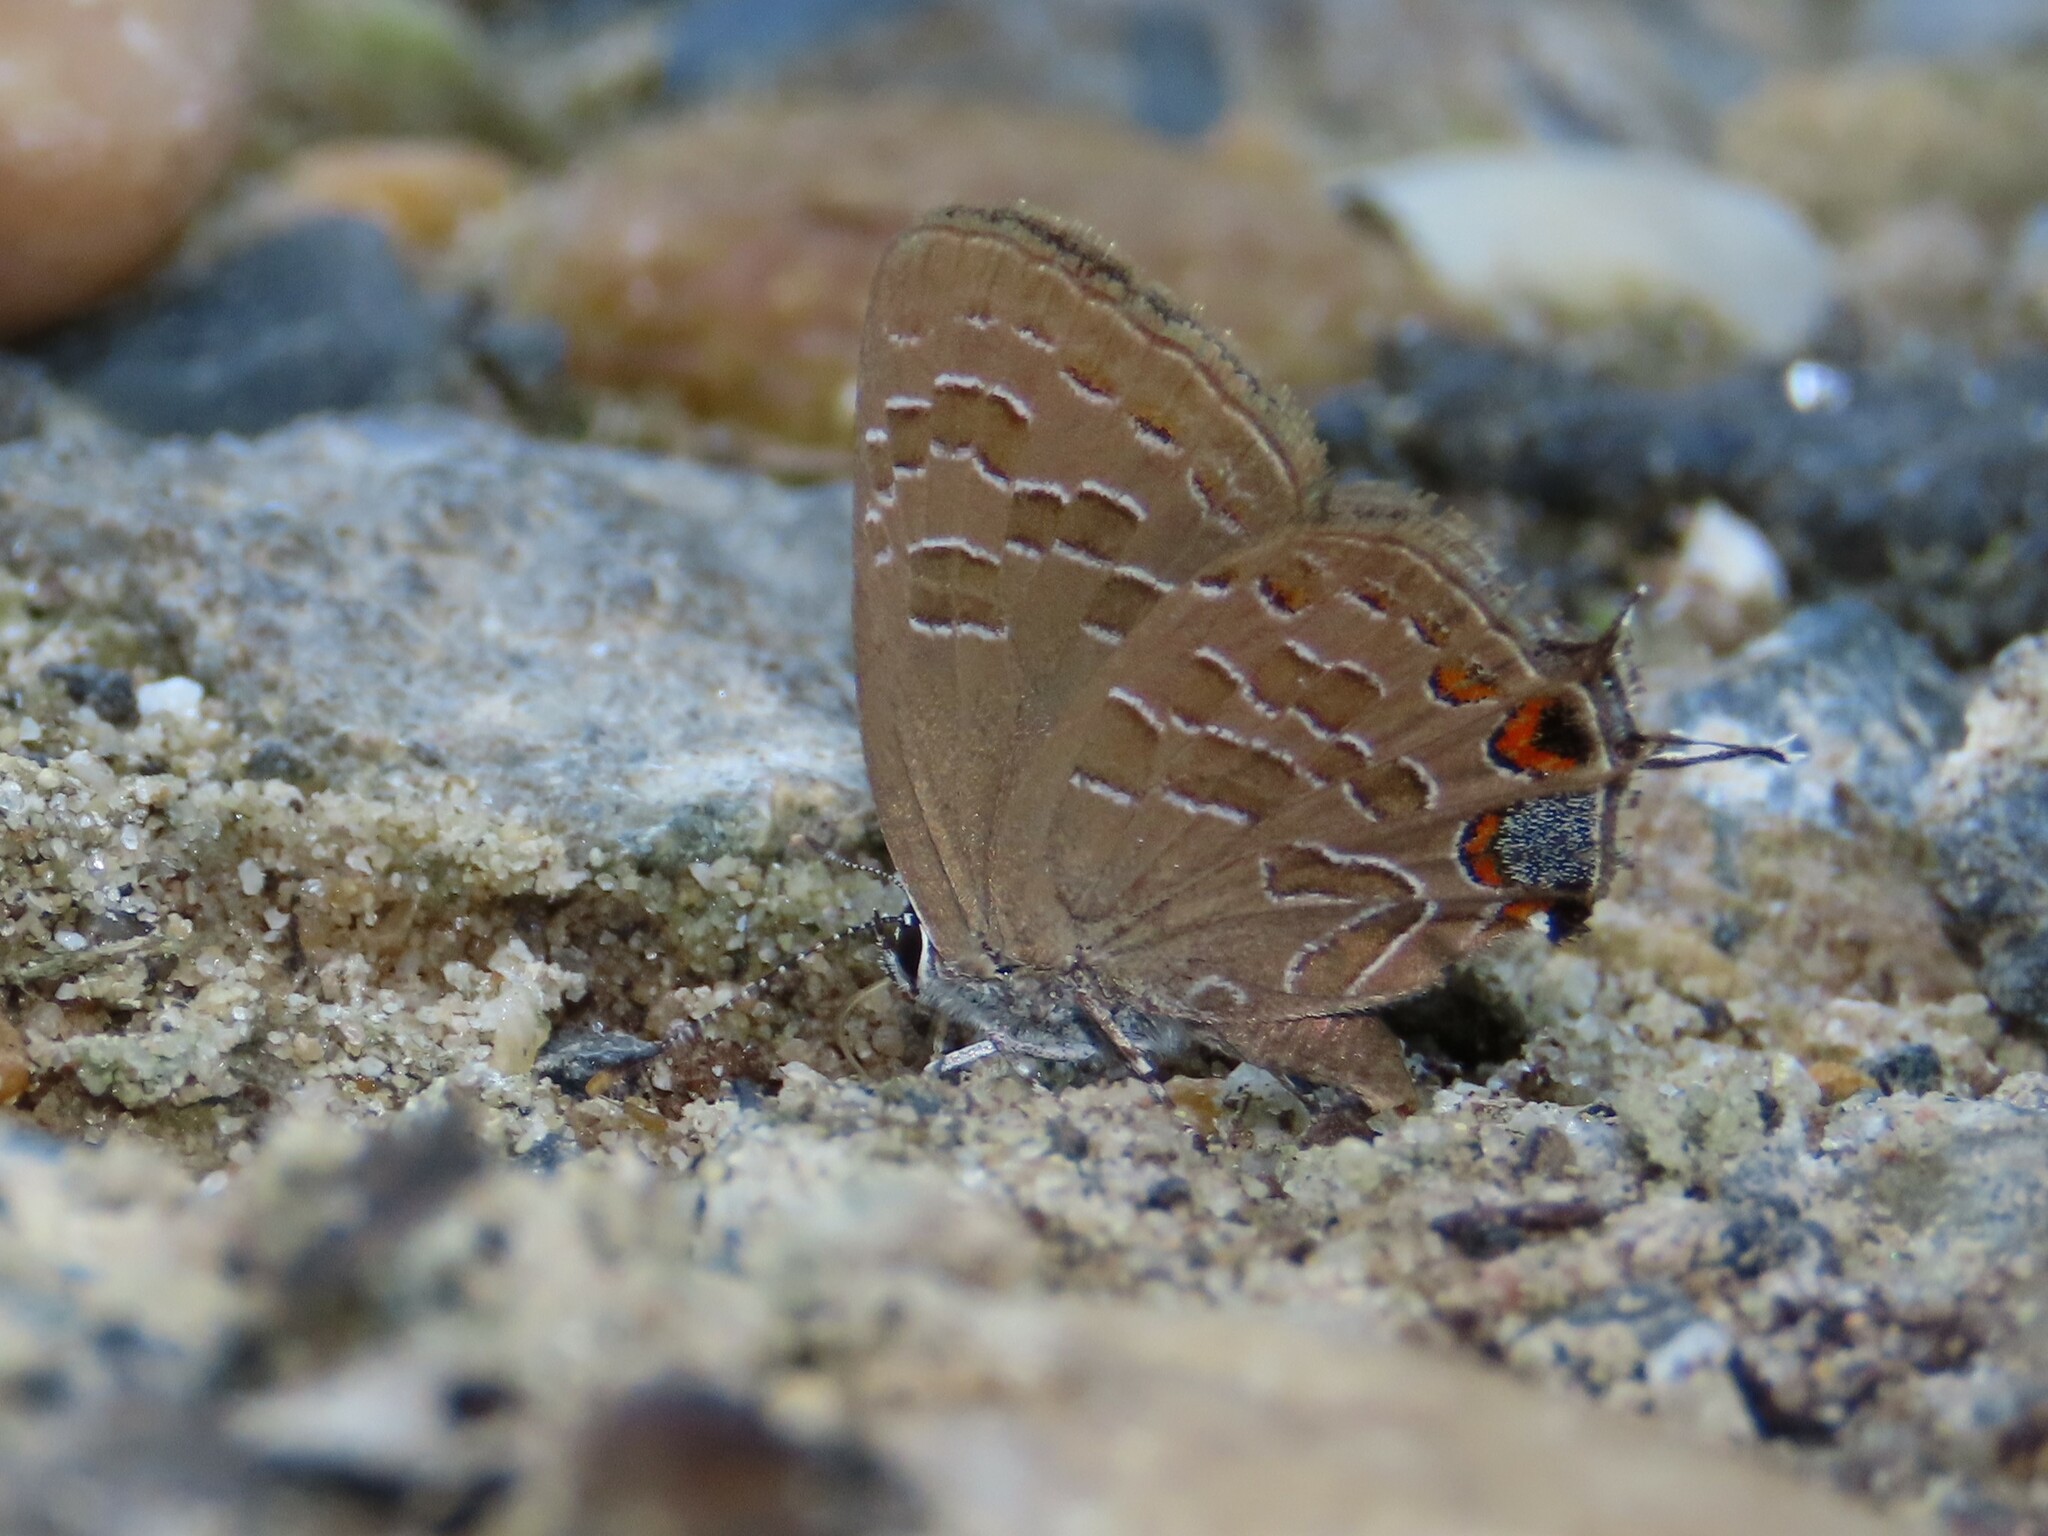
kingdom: Animalia
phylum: Arthropoda
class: Insecta
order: Lepidoptera
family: Lycaenidae
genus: Satyrium
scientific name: Satyrium liparops
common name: Striped hairstreak
